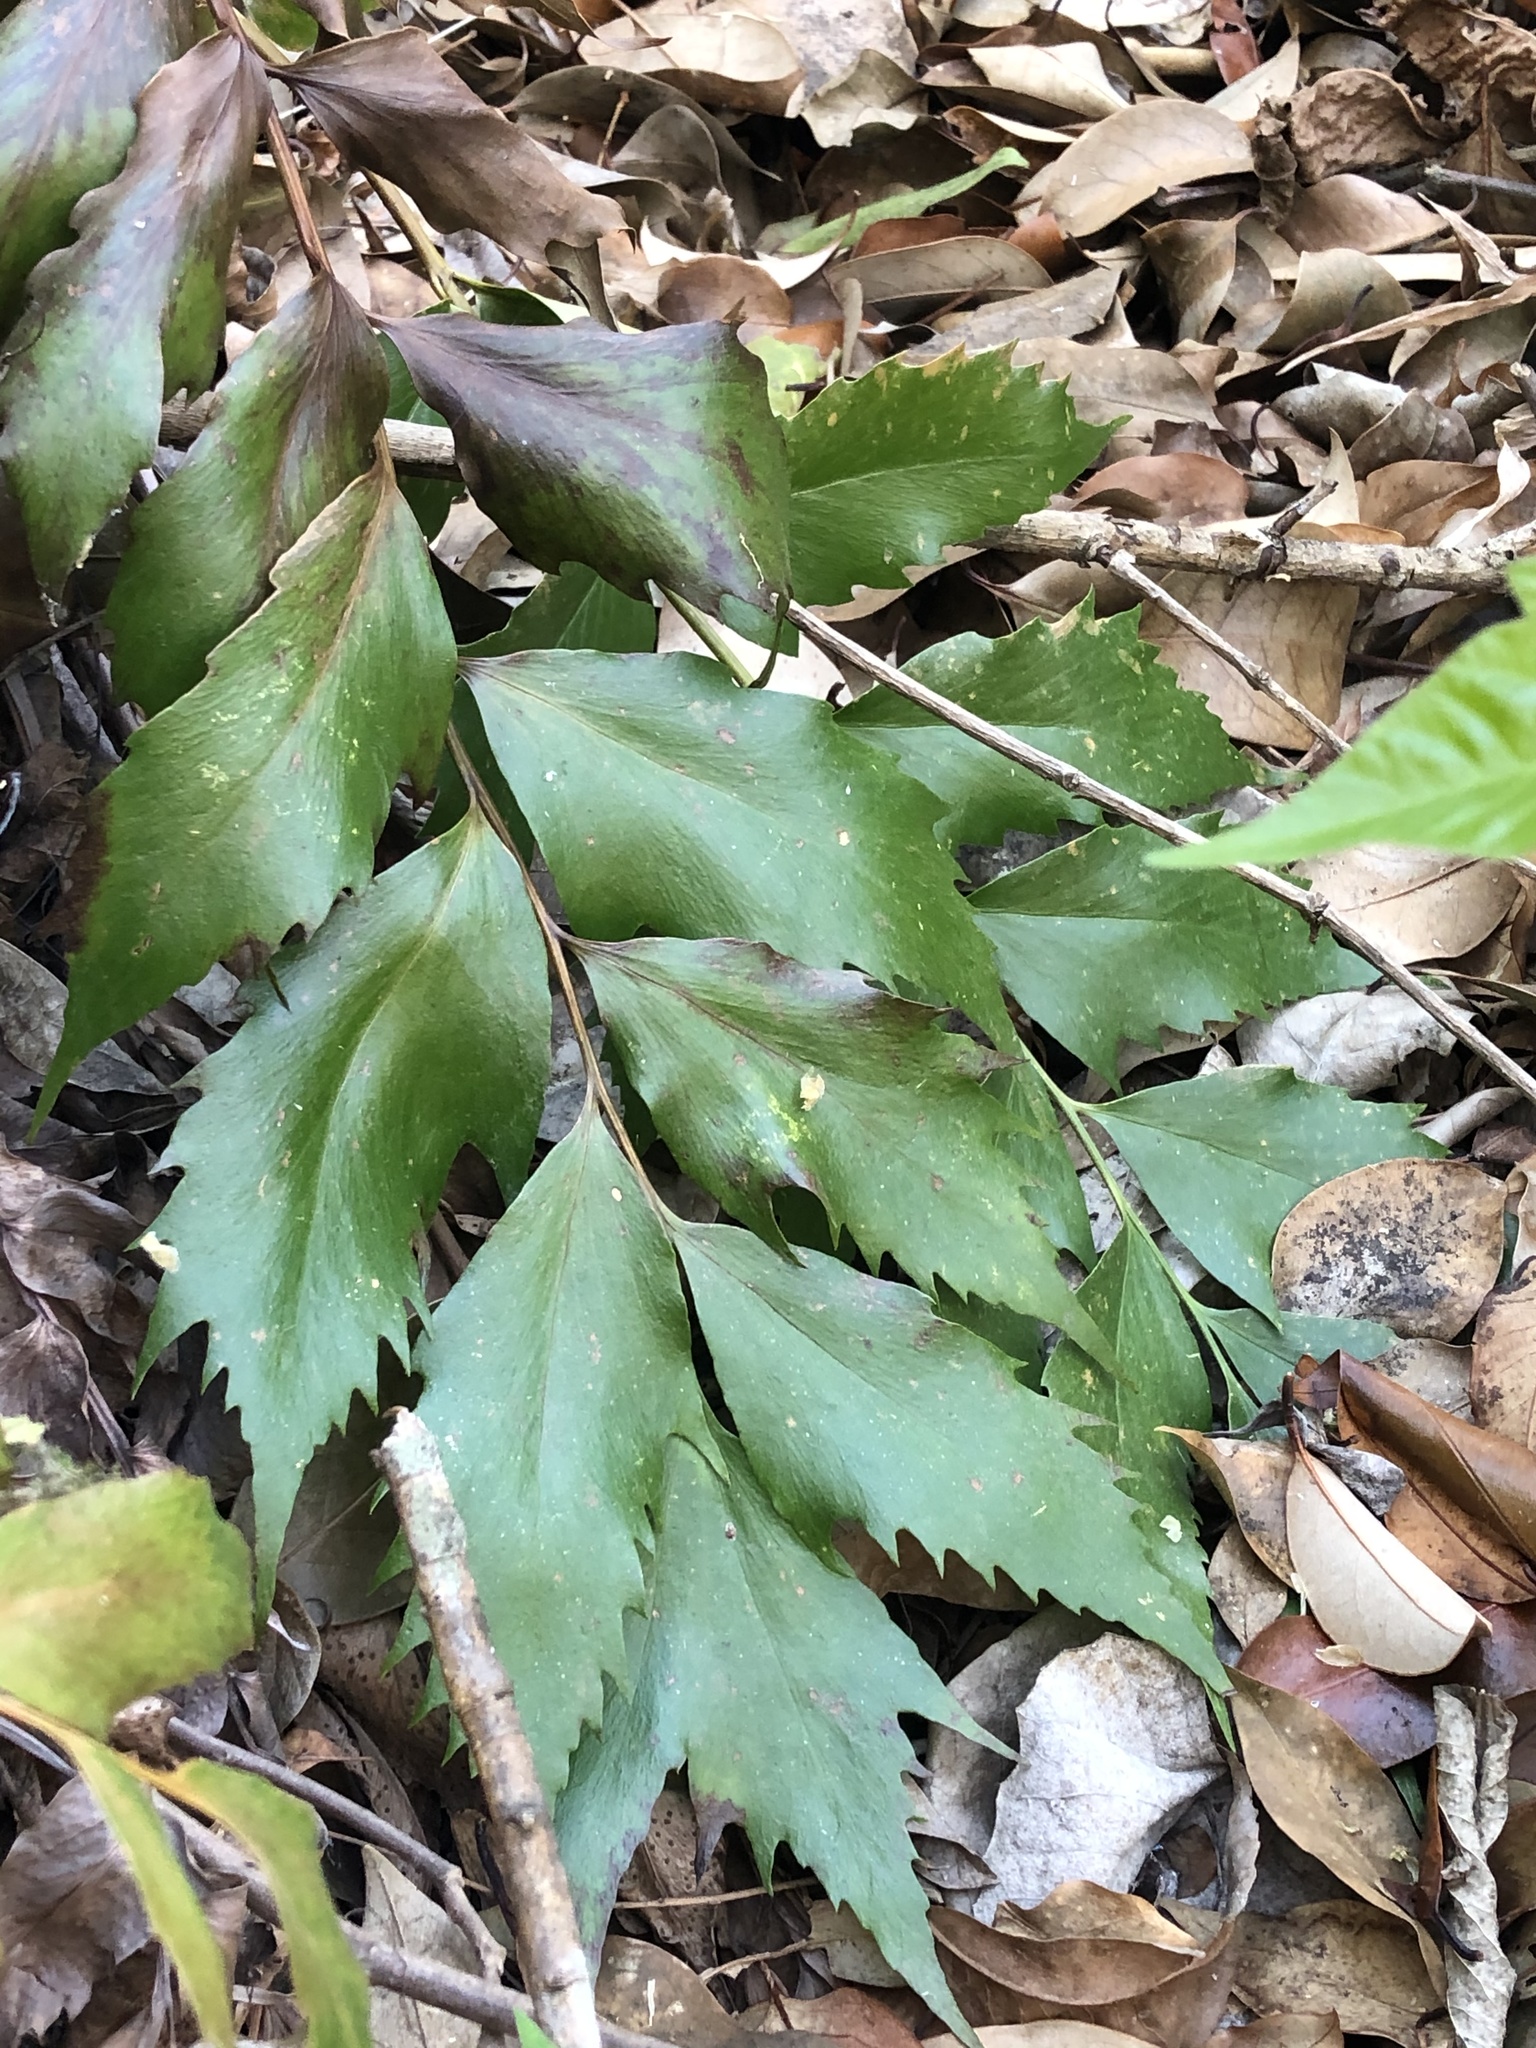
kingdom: Plantae
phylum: Tracheophyta
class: Polypodiopsida
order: Polypodiales
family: Dryopteridaceae
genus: Cyrtomium
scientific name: Cyrtomium falcatum
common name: House holly-fern
